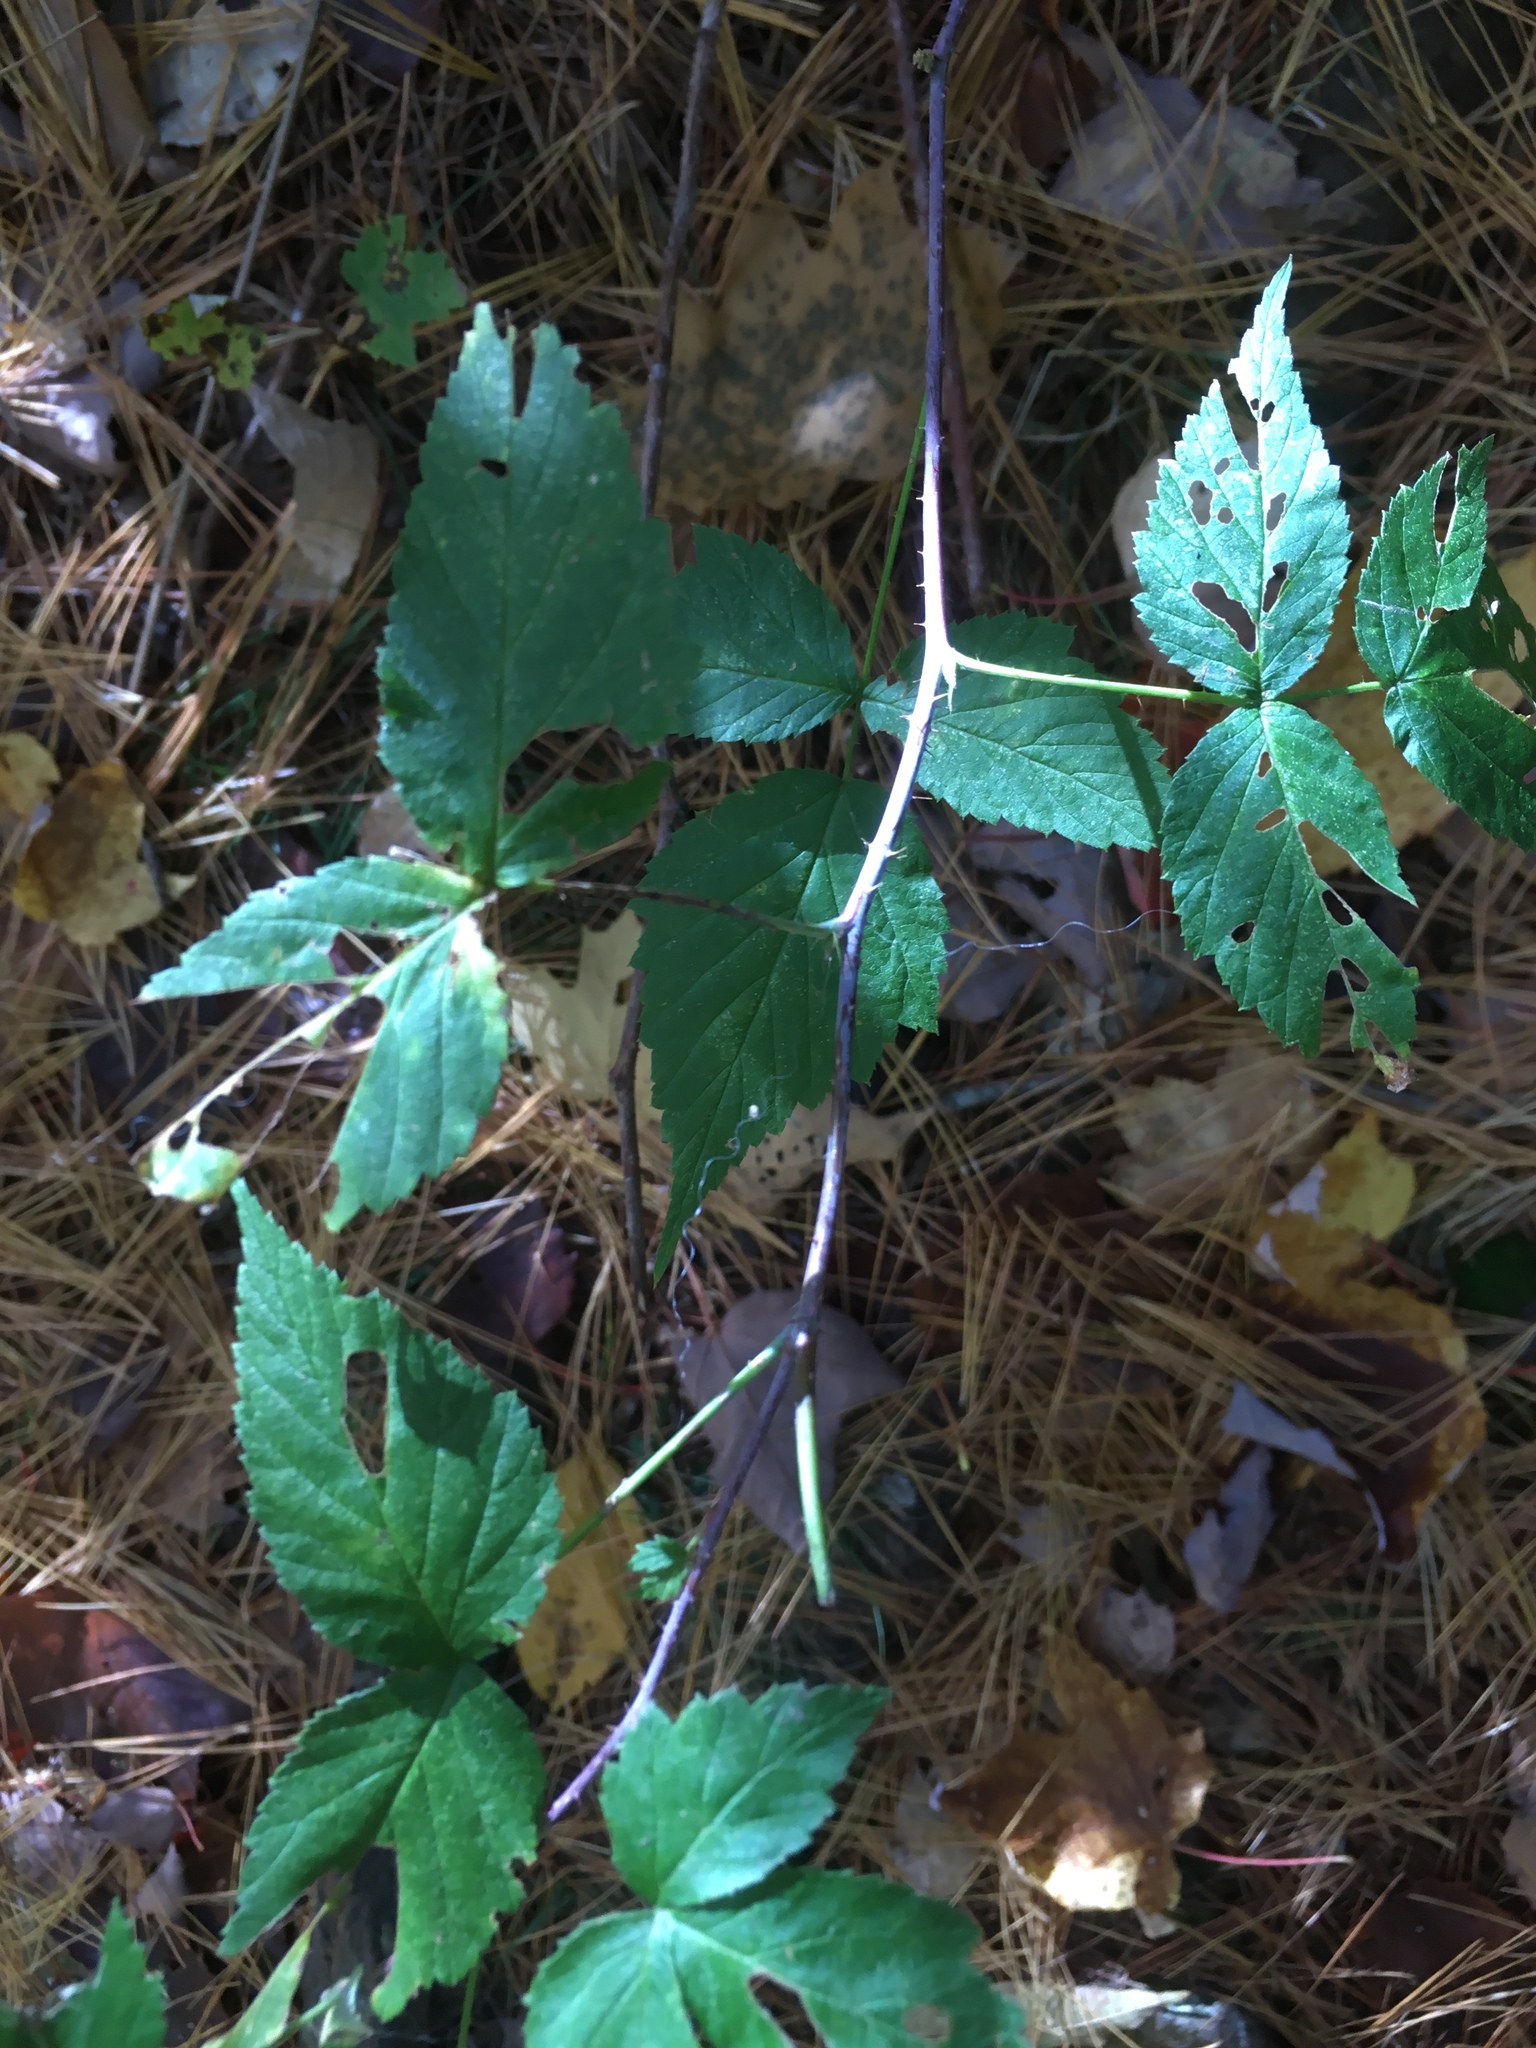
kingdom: Plantae
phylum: Tracheophyta
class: Magnoliopsida
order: Rosales
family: Rosaceae
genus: Rubus
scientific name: Rubus occidentalis
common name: Black raspberry
